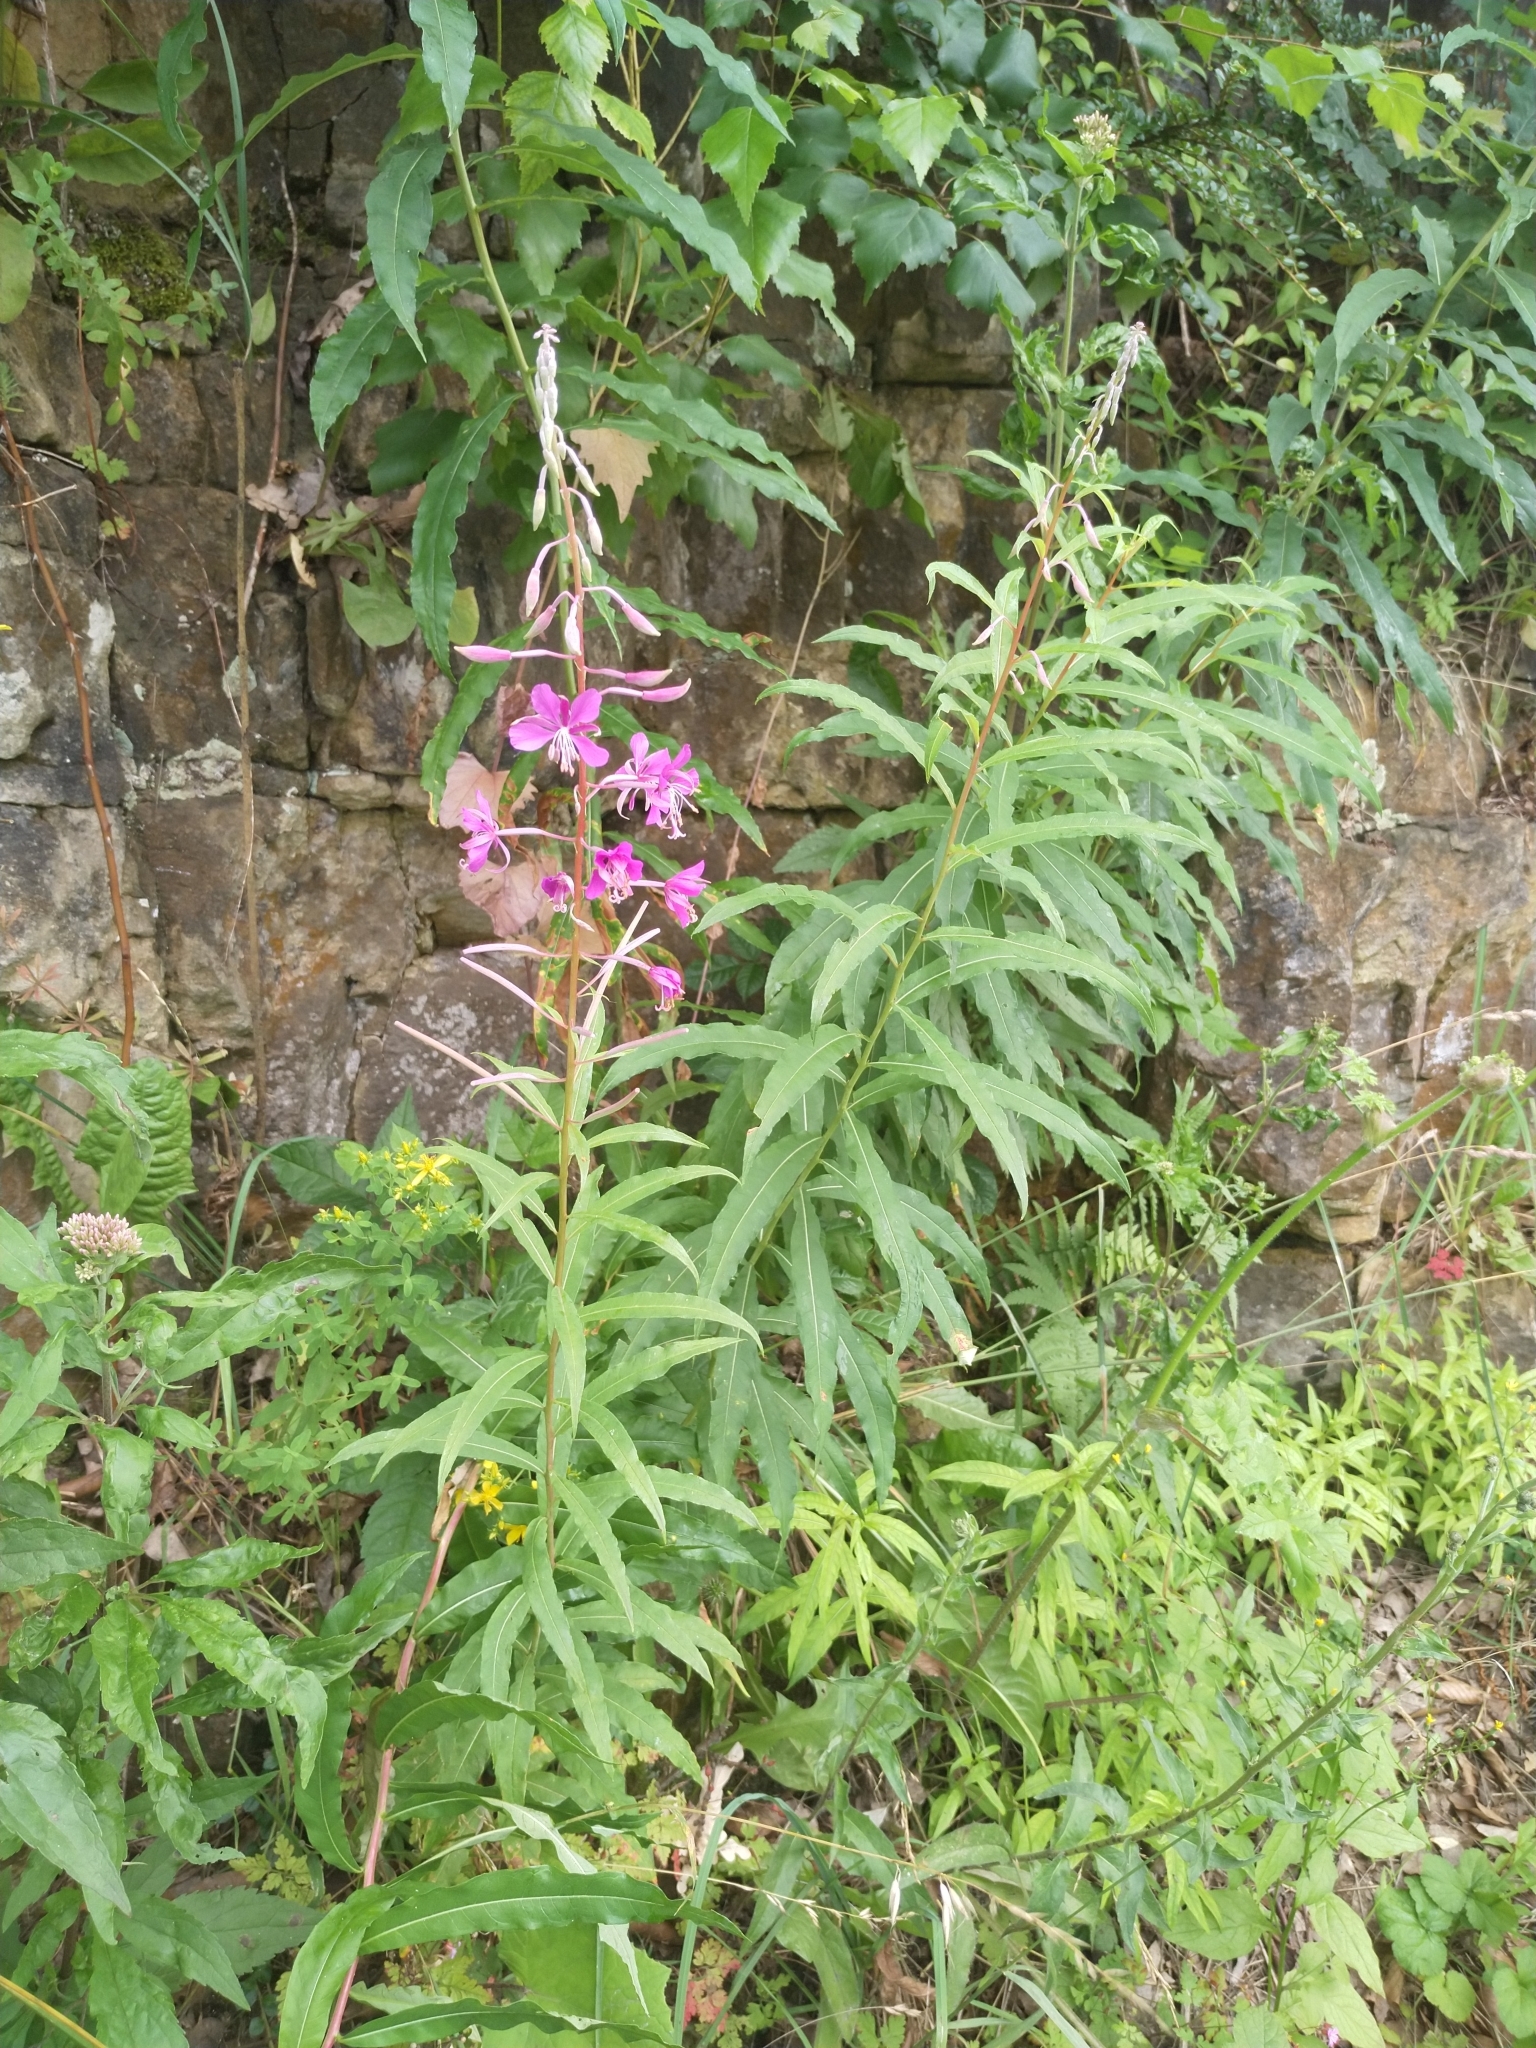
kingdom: Plantae
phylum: Tracheophyta
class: Magnoliopsida
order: Myrtales
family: Onagraceae
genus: Chamaenerion
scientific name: Chamaenerion angustifolium
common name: Fireweed
